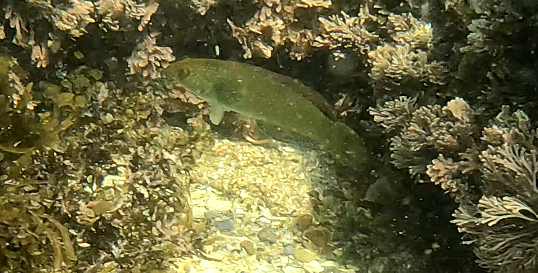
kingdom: Animalia
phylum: Chordata
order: Perciformes
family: Labridae
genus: Pictilabrus
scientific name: Pictilabrus laticlavius
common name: Patrician wrasse
